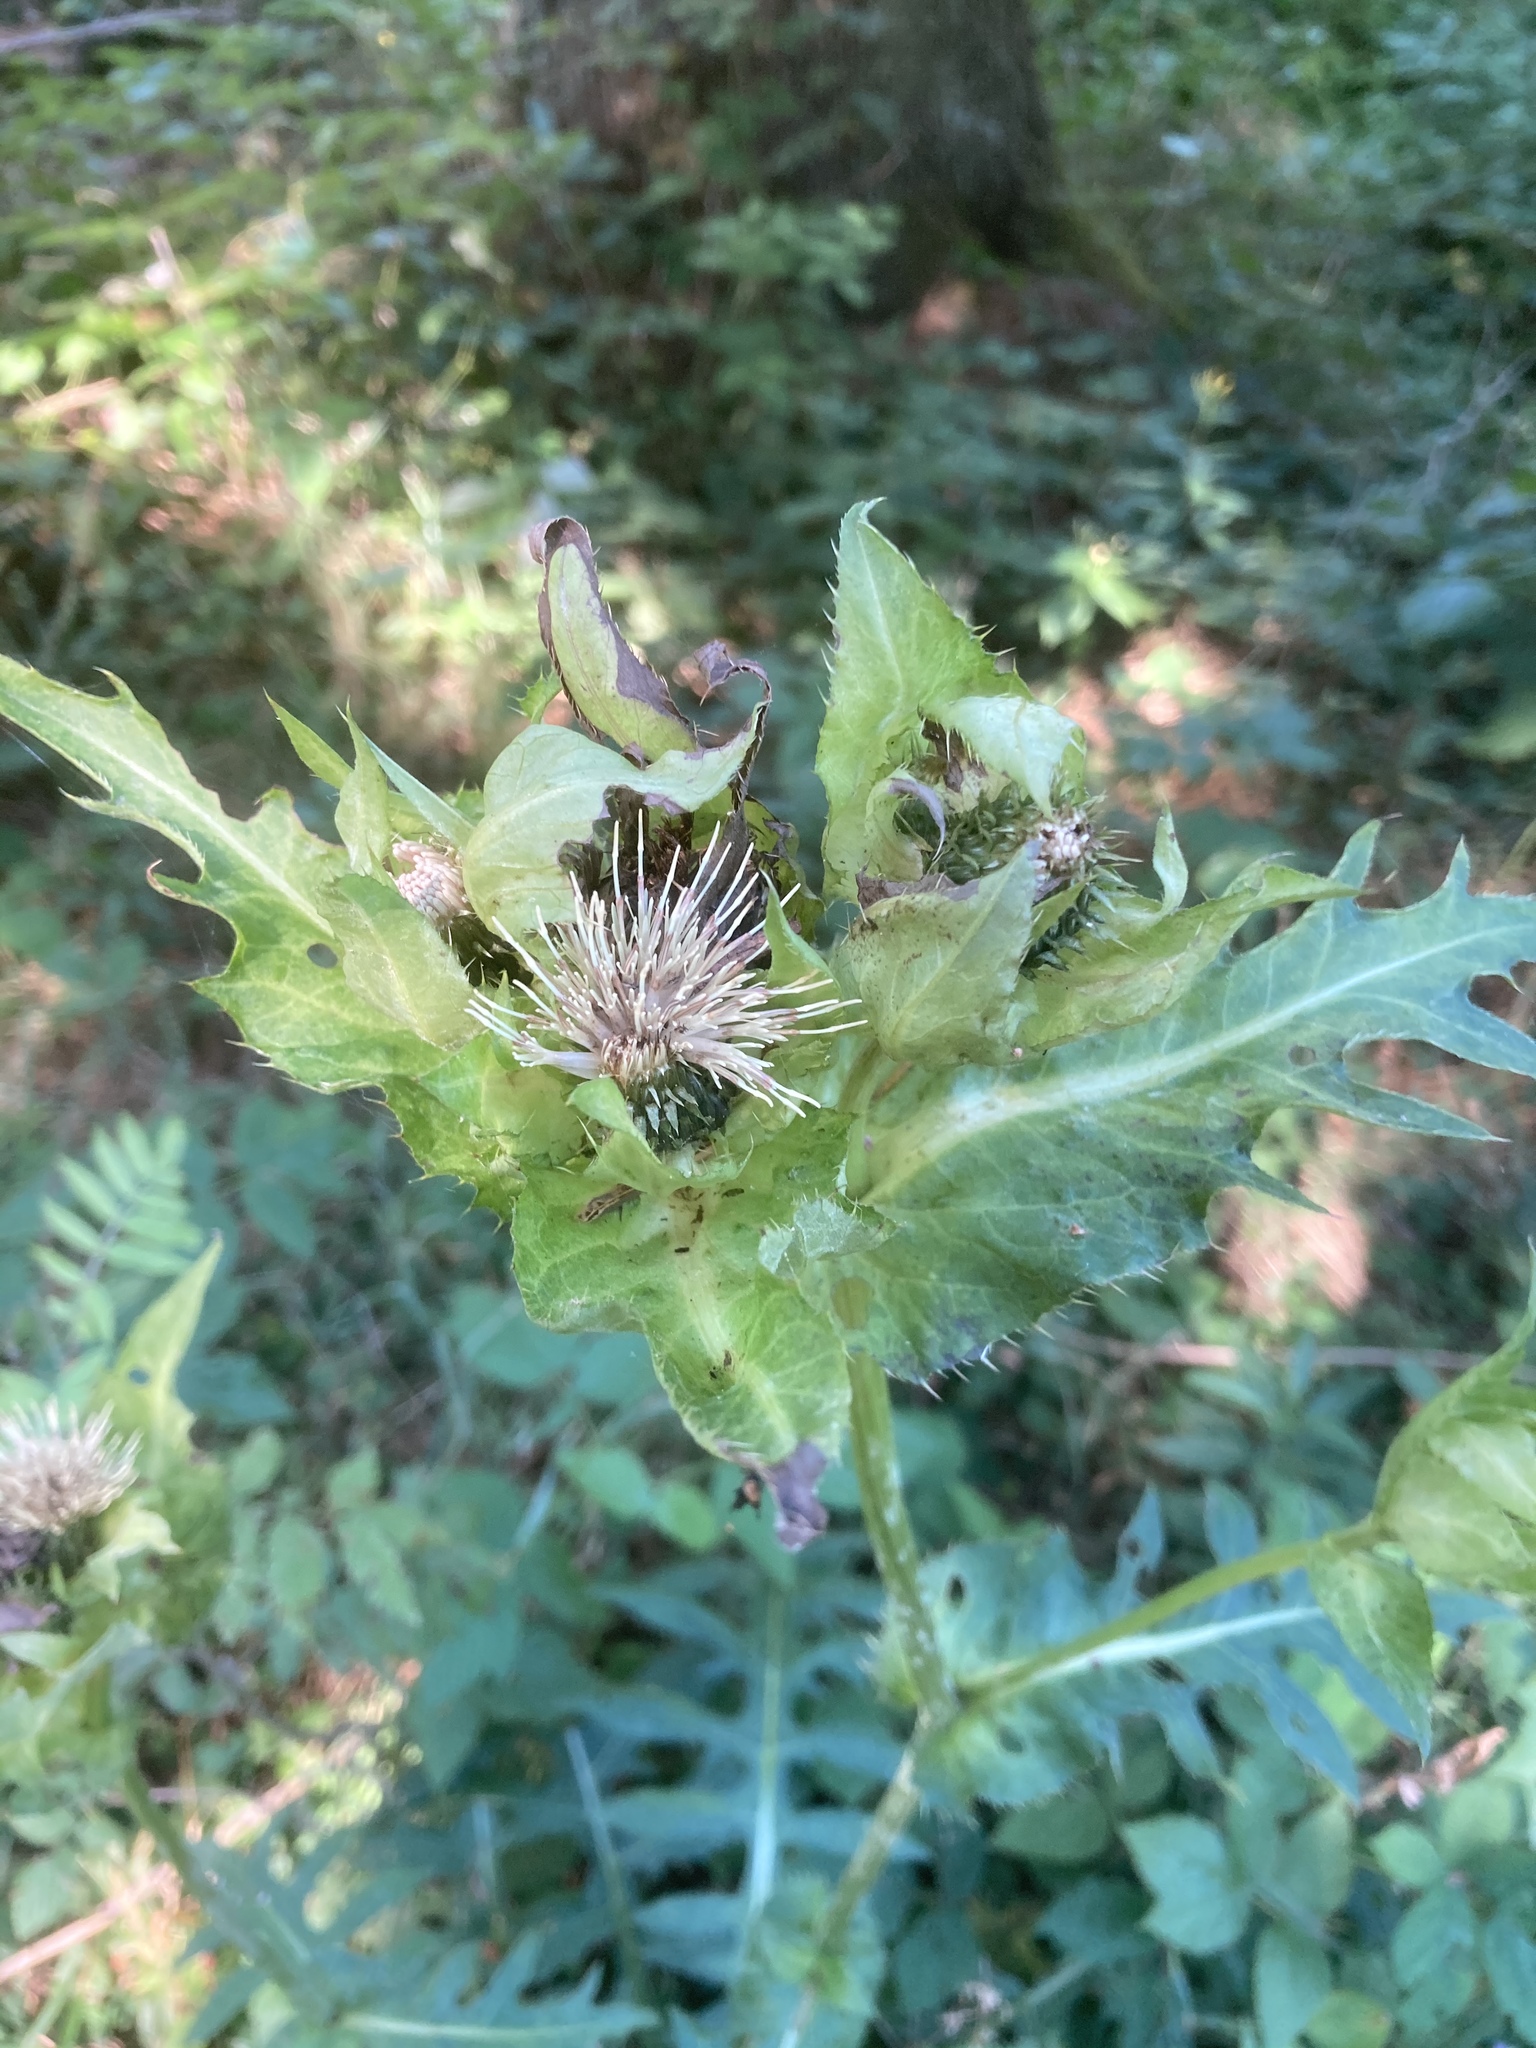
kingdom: Plantae
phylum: Tracheophyta
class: Magnoliopsida
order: Asterales
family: Asteraceae
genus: Cirsium
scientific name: Cirsium oleraceum
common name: Cabbage thistle
